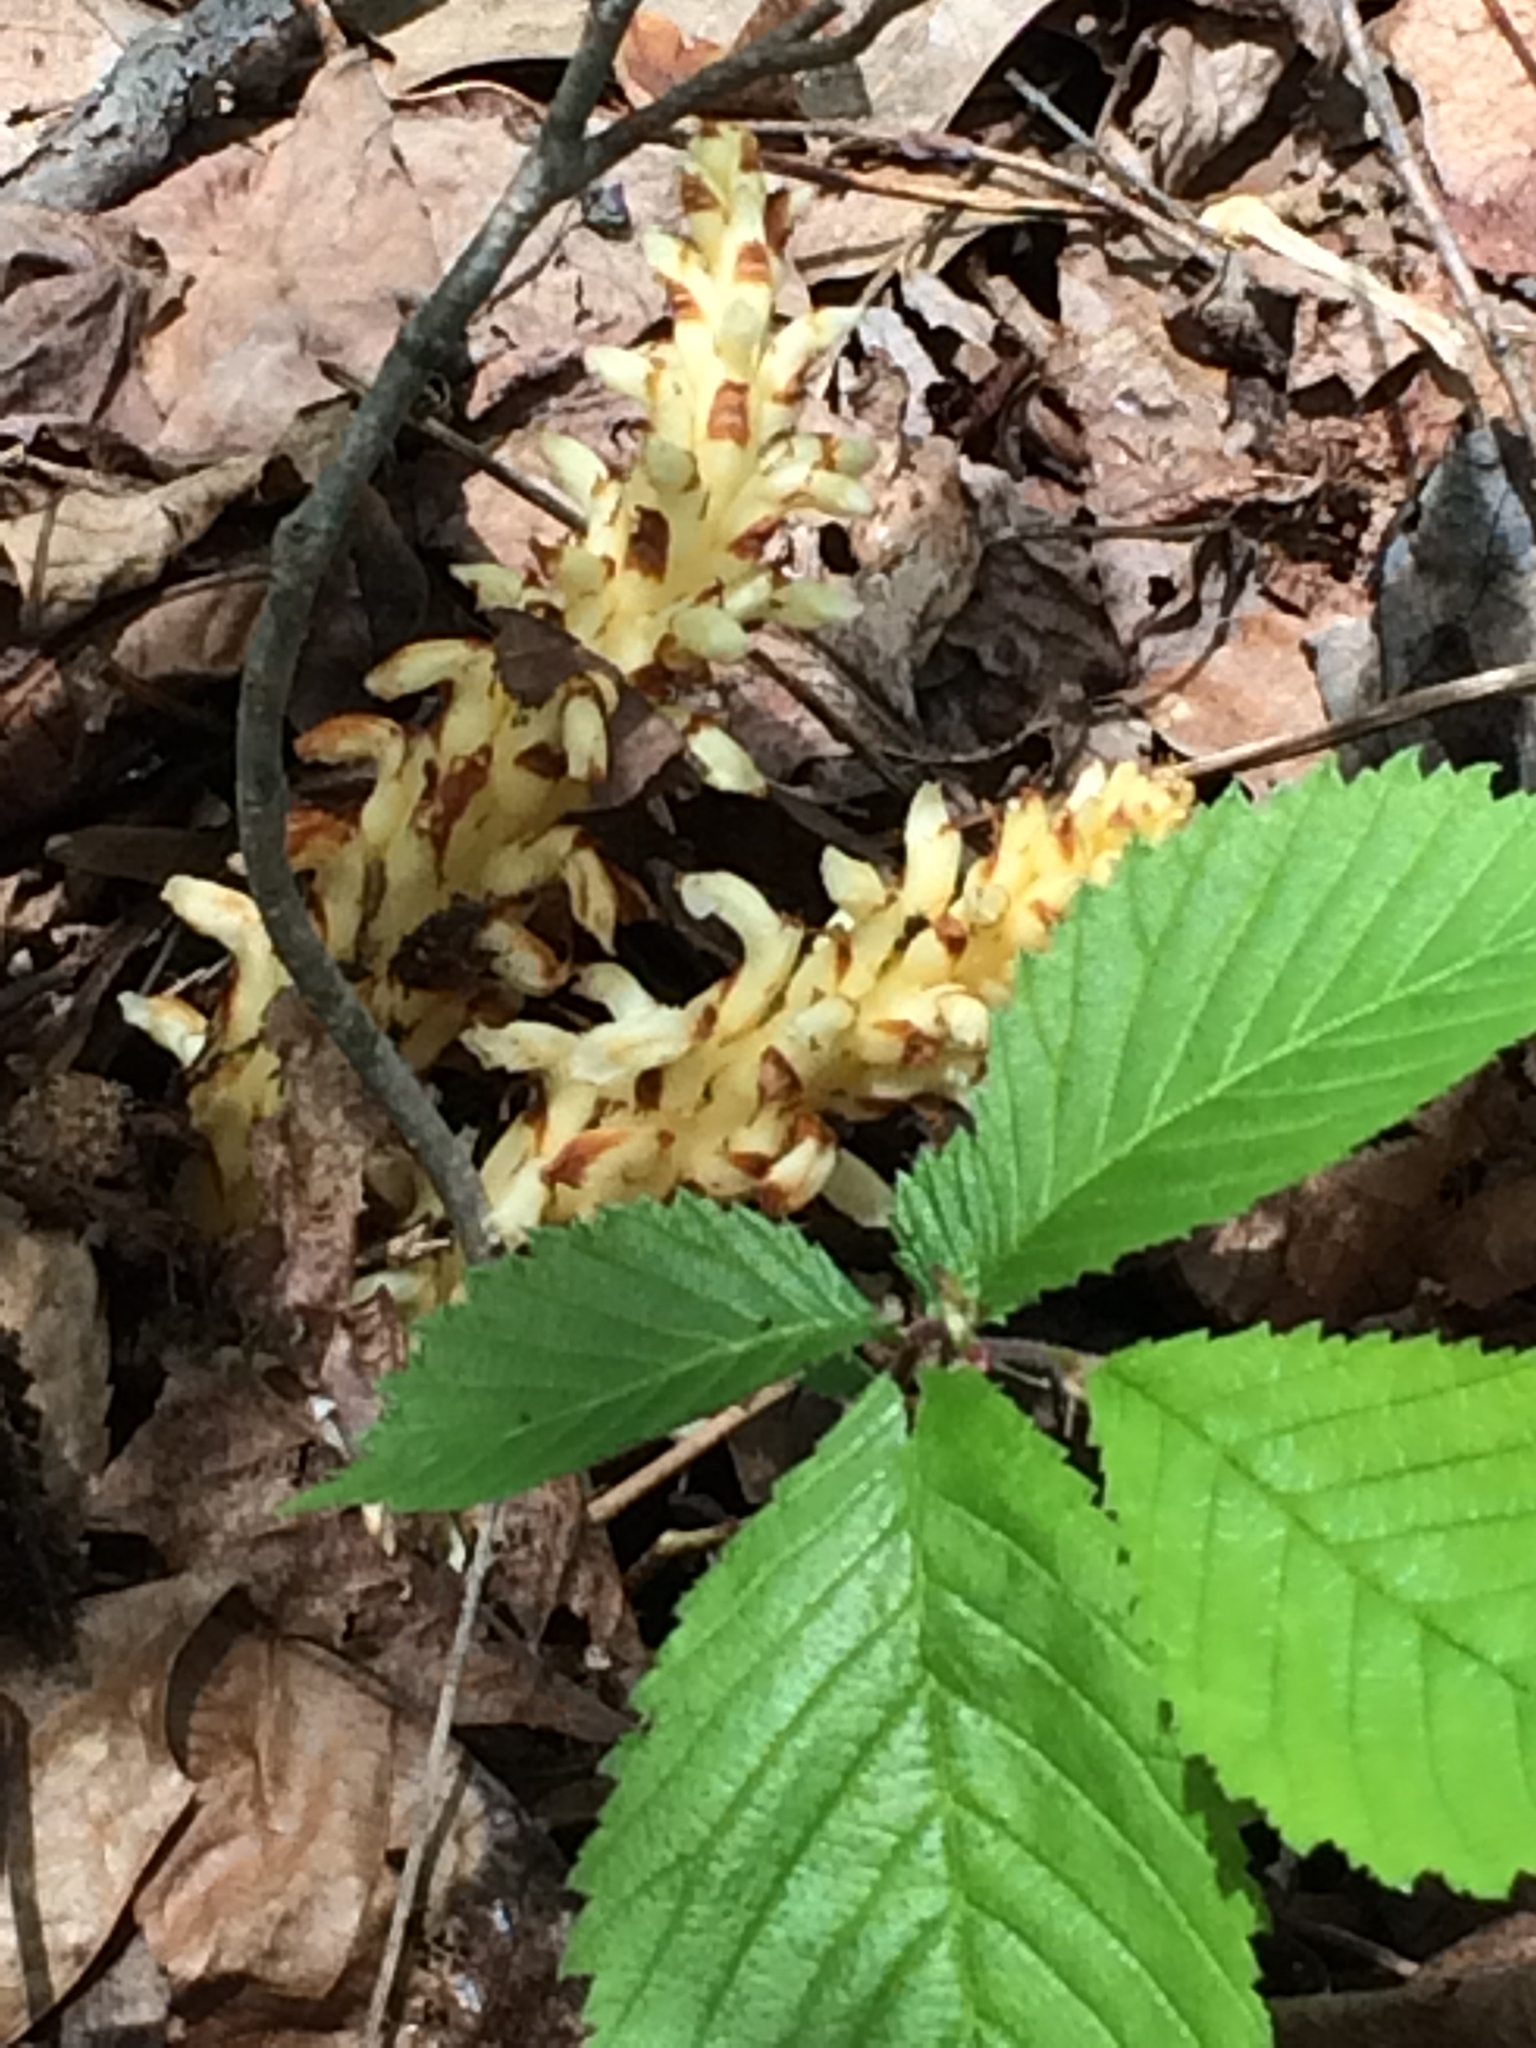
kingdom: Plantae
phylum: Tracheophyta
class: Magnoliopsida
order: Lamiales
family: Orobanchaceae
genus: Conopholis
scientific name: Conopholis americana
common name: American cancer-root
